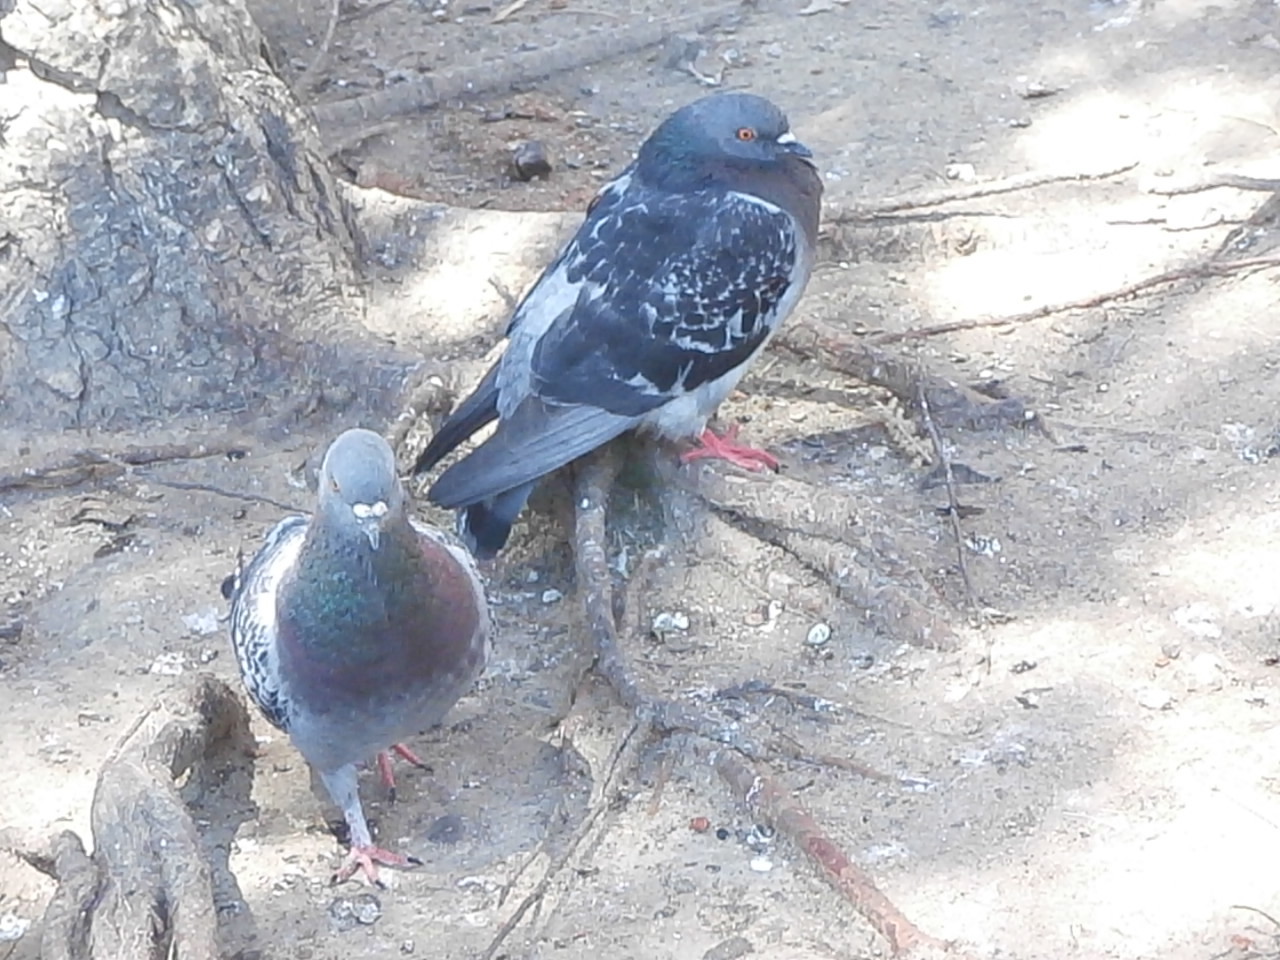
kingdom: Animalia
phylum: Chordata
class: Aves
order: Columbiformes
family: Columbidae
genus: Columba
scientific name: Columba livia
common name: Rock pigeon
